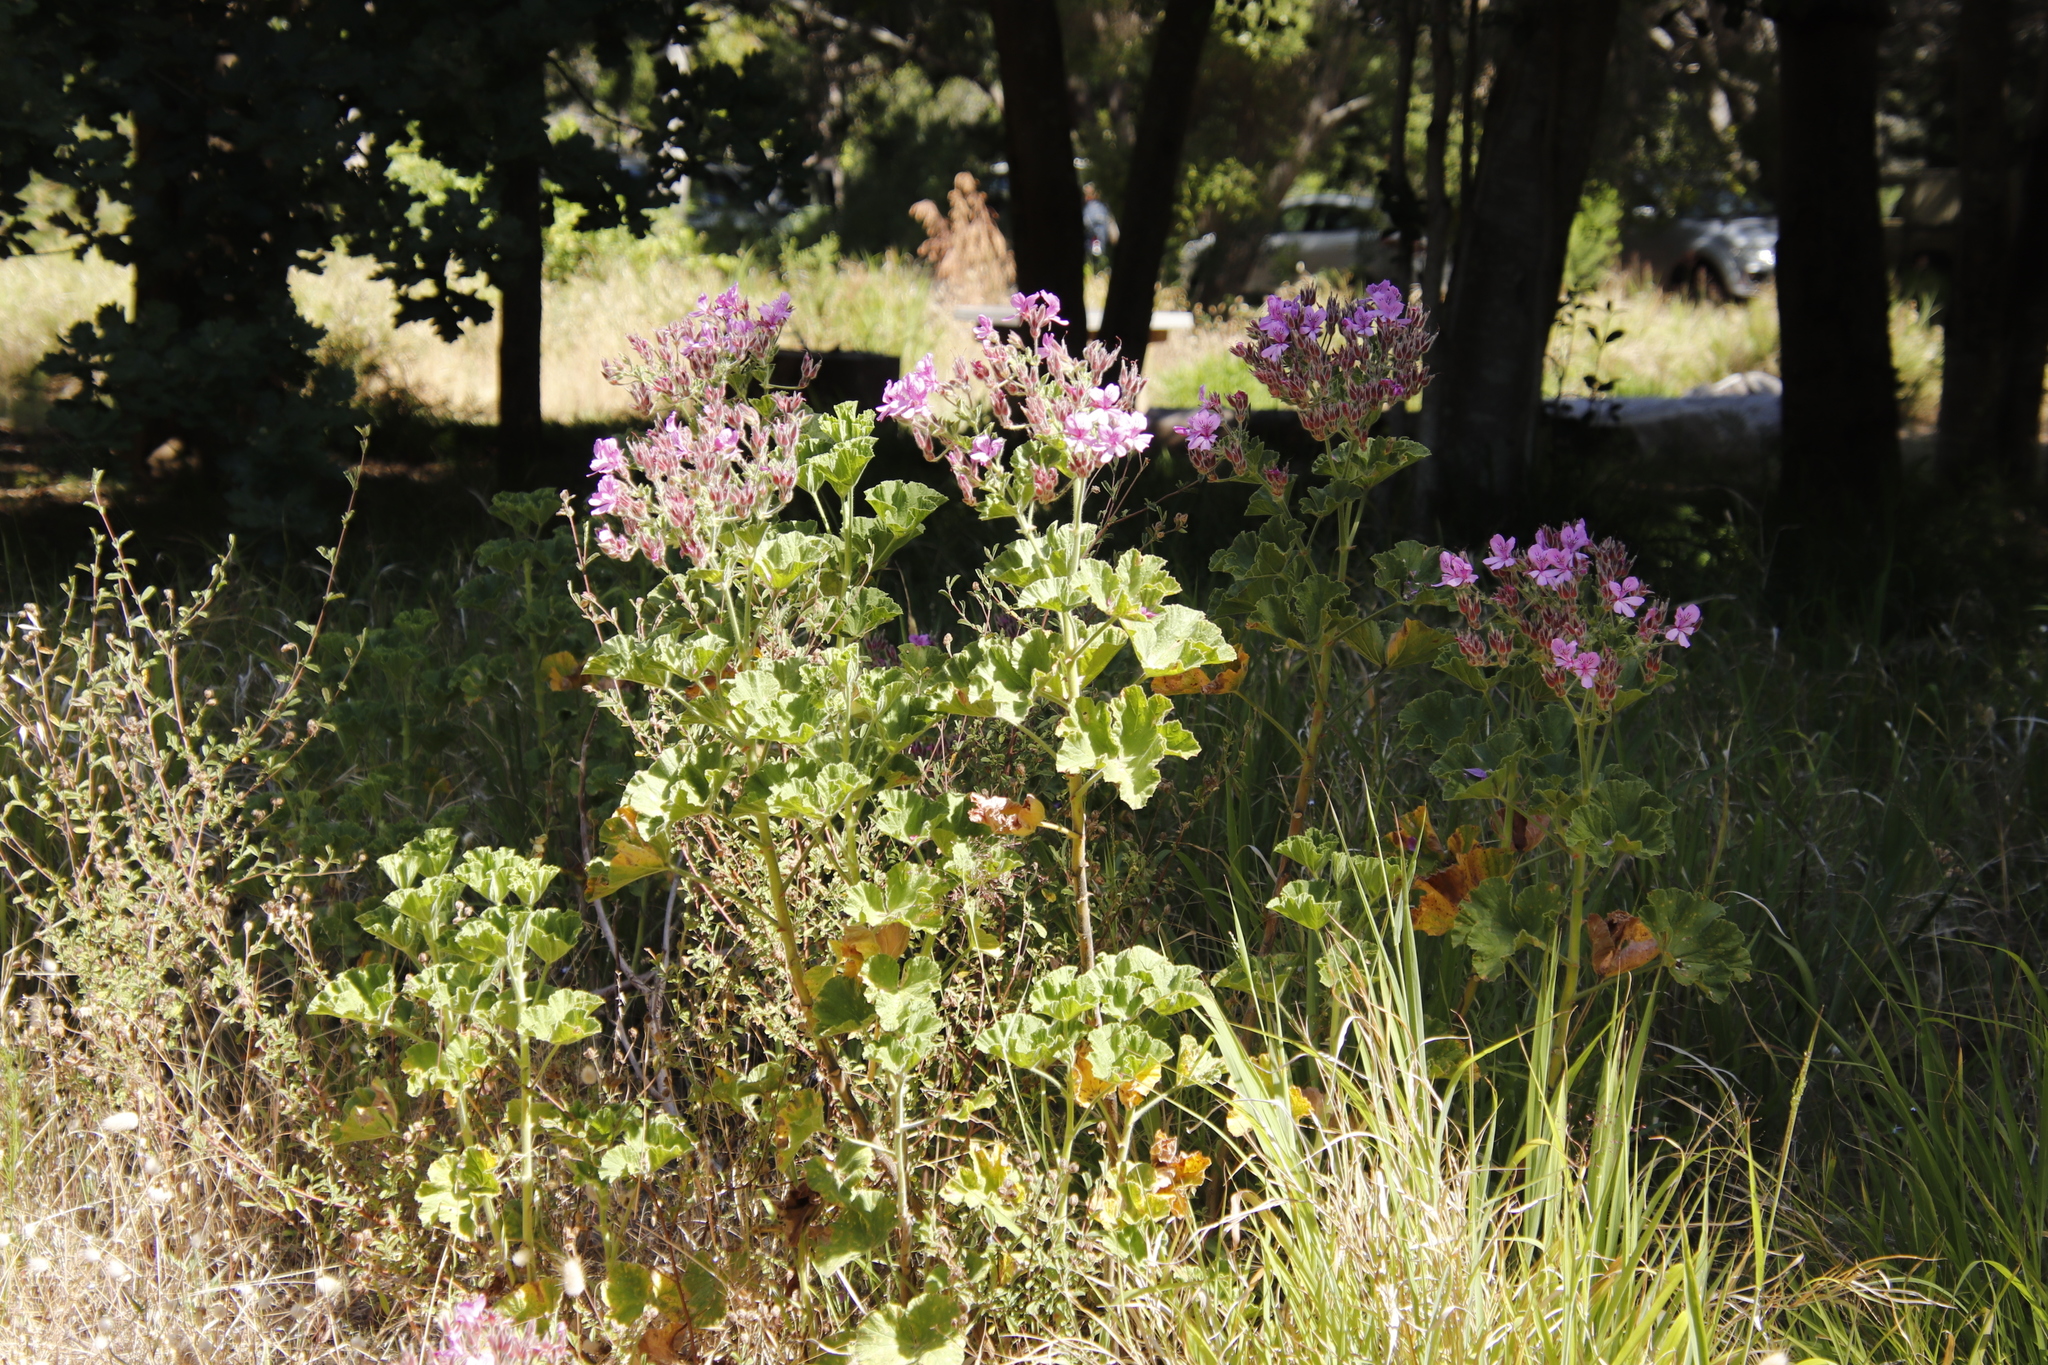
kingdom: Plantae
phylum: Tracheophyta
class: Magnoliopsida
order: Geraniales
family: Geraniaceae
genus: Pelargonium
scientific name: Pelargonium cucullatum
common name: Tree pelargonium
